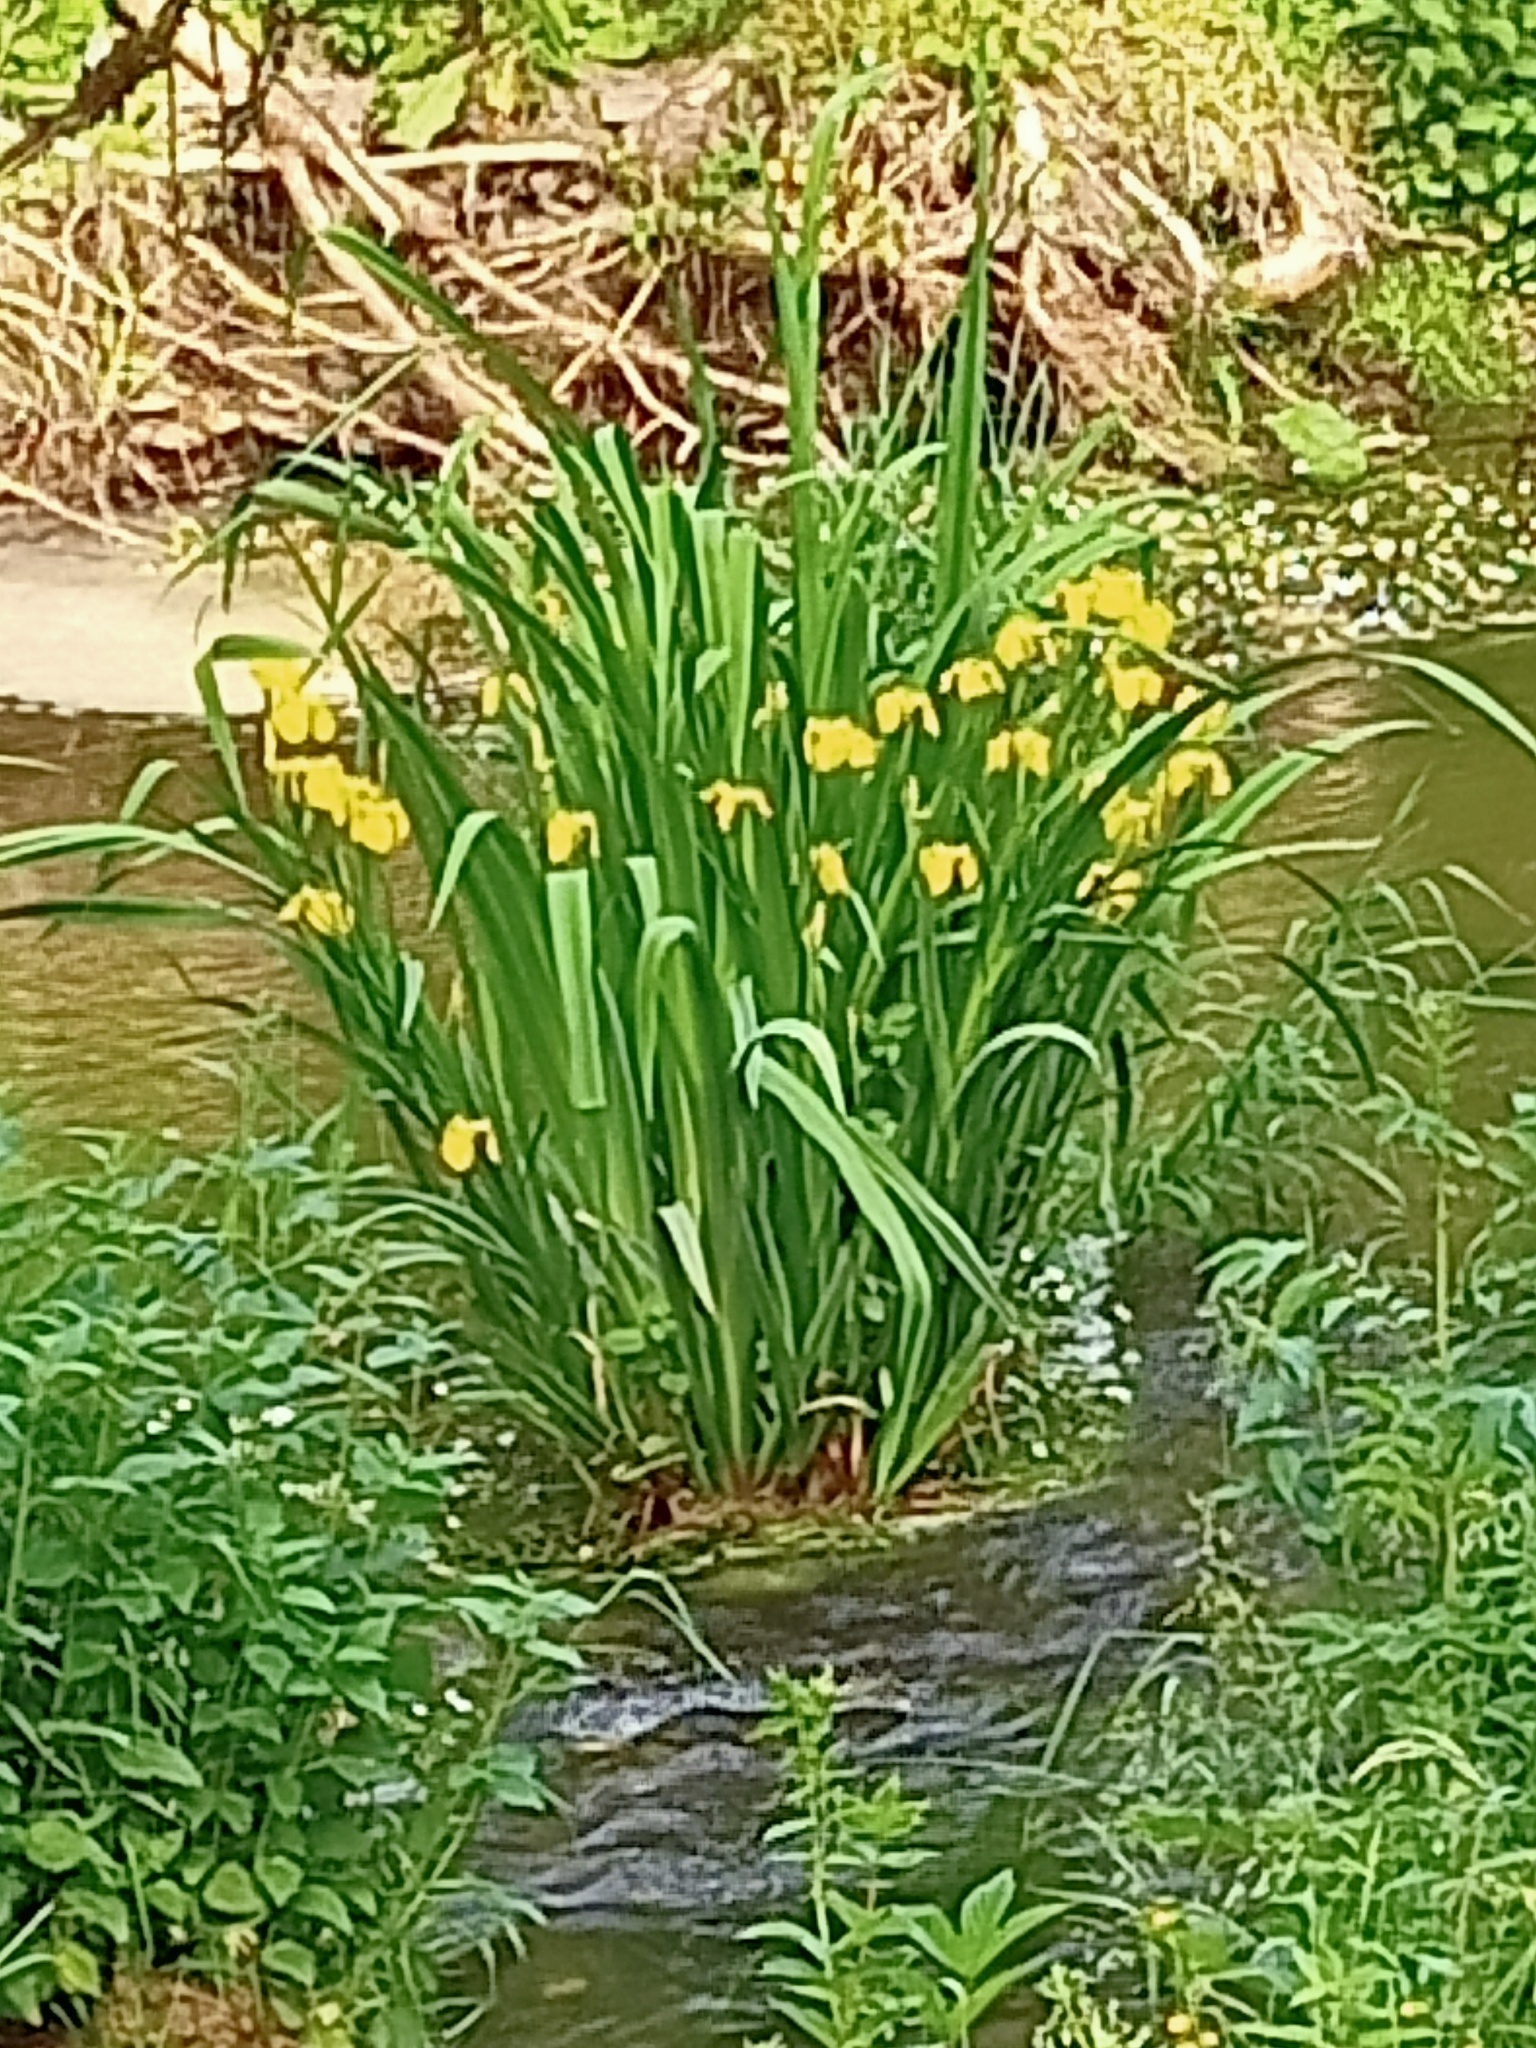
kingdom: Plantae
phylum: Tracheophyta
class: Liliopsida
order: Asparagales
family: Iridaceae
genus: Iris
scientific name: Iris pseudacorus
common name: Yellow flag
